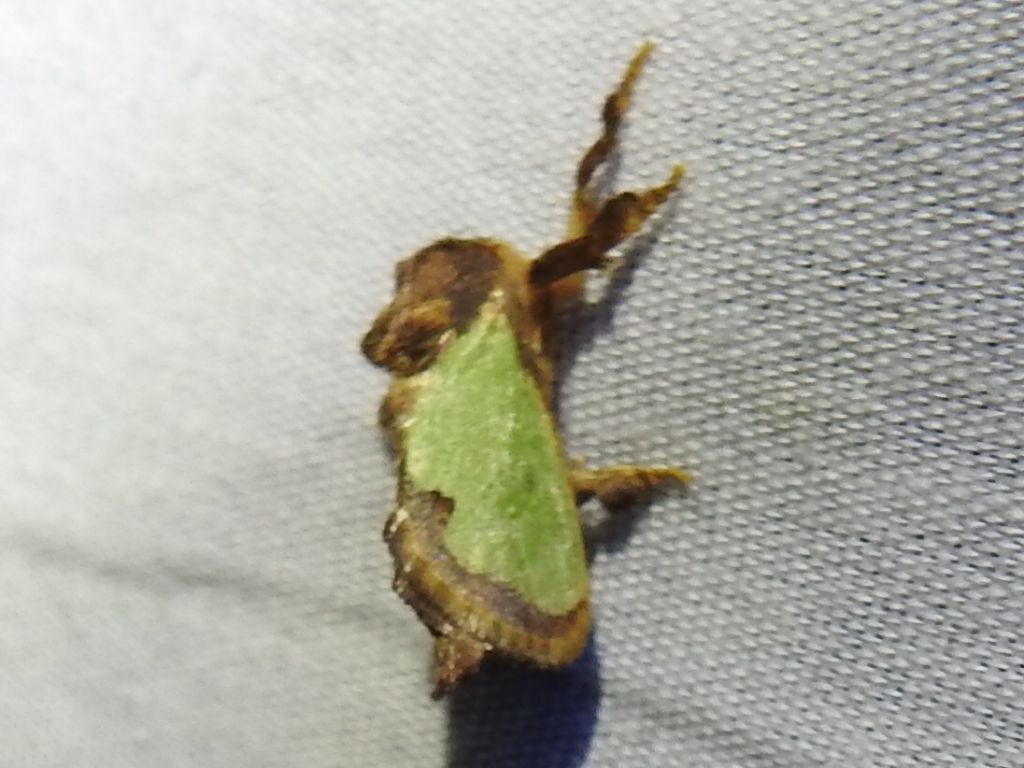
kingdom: Animalia
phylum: Arthropoda
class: Insecta
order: Lepidoptera
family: Limacodidae
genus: Euclea
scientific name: Euclea incisa
